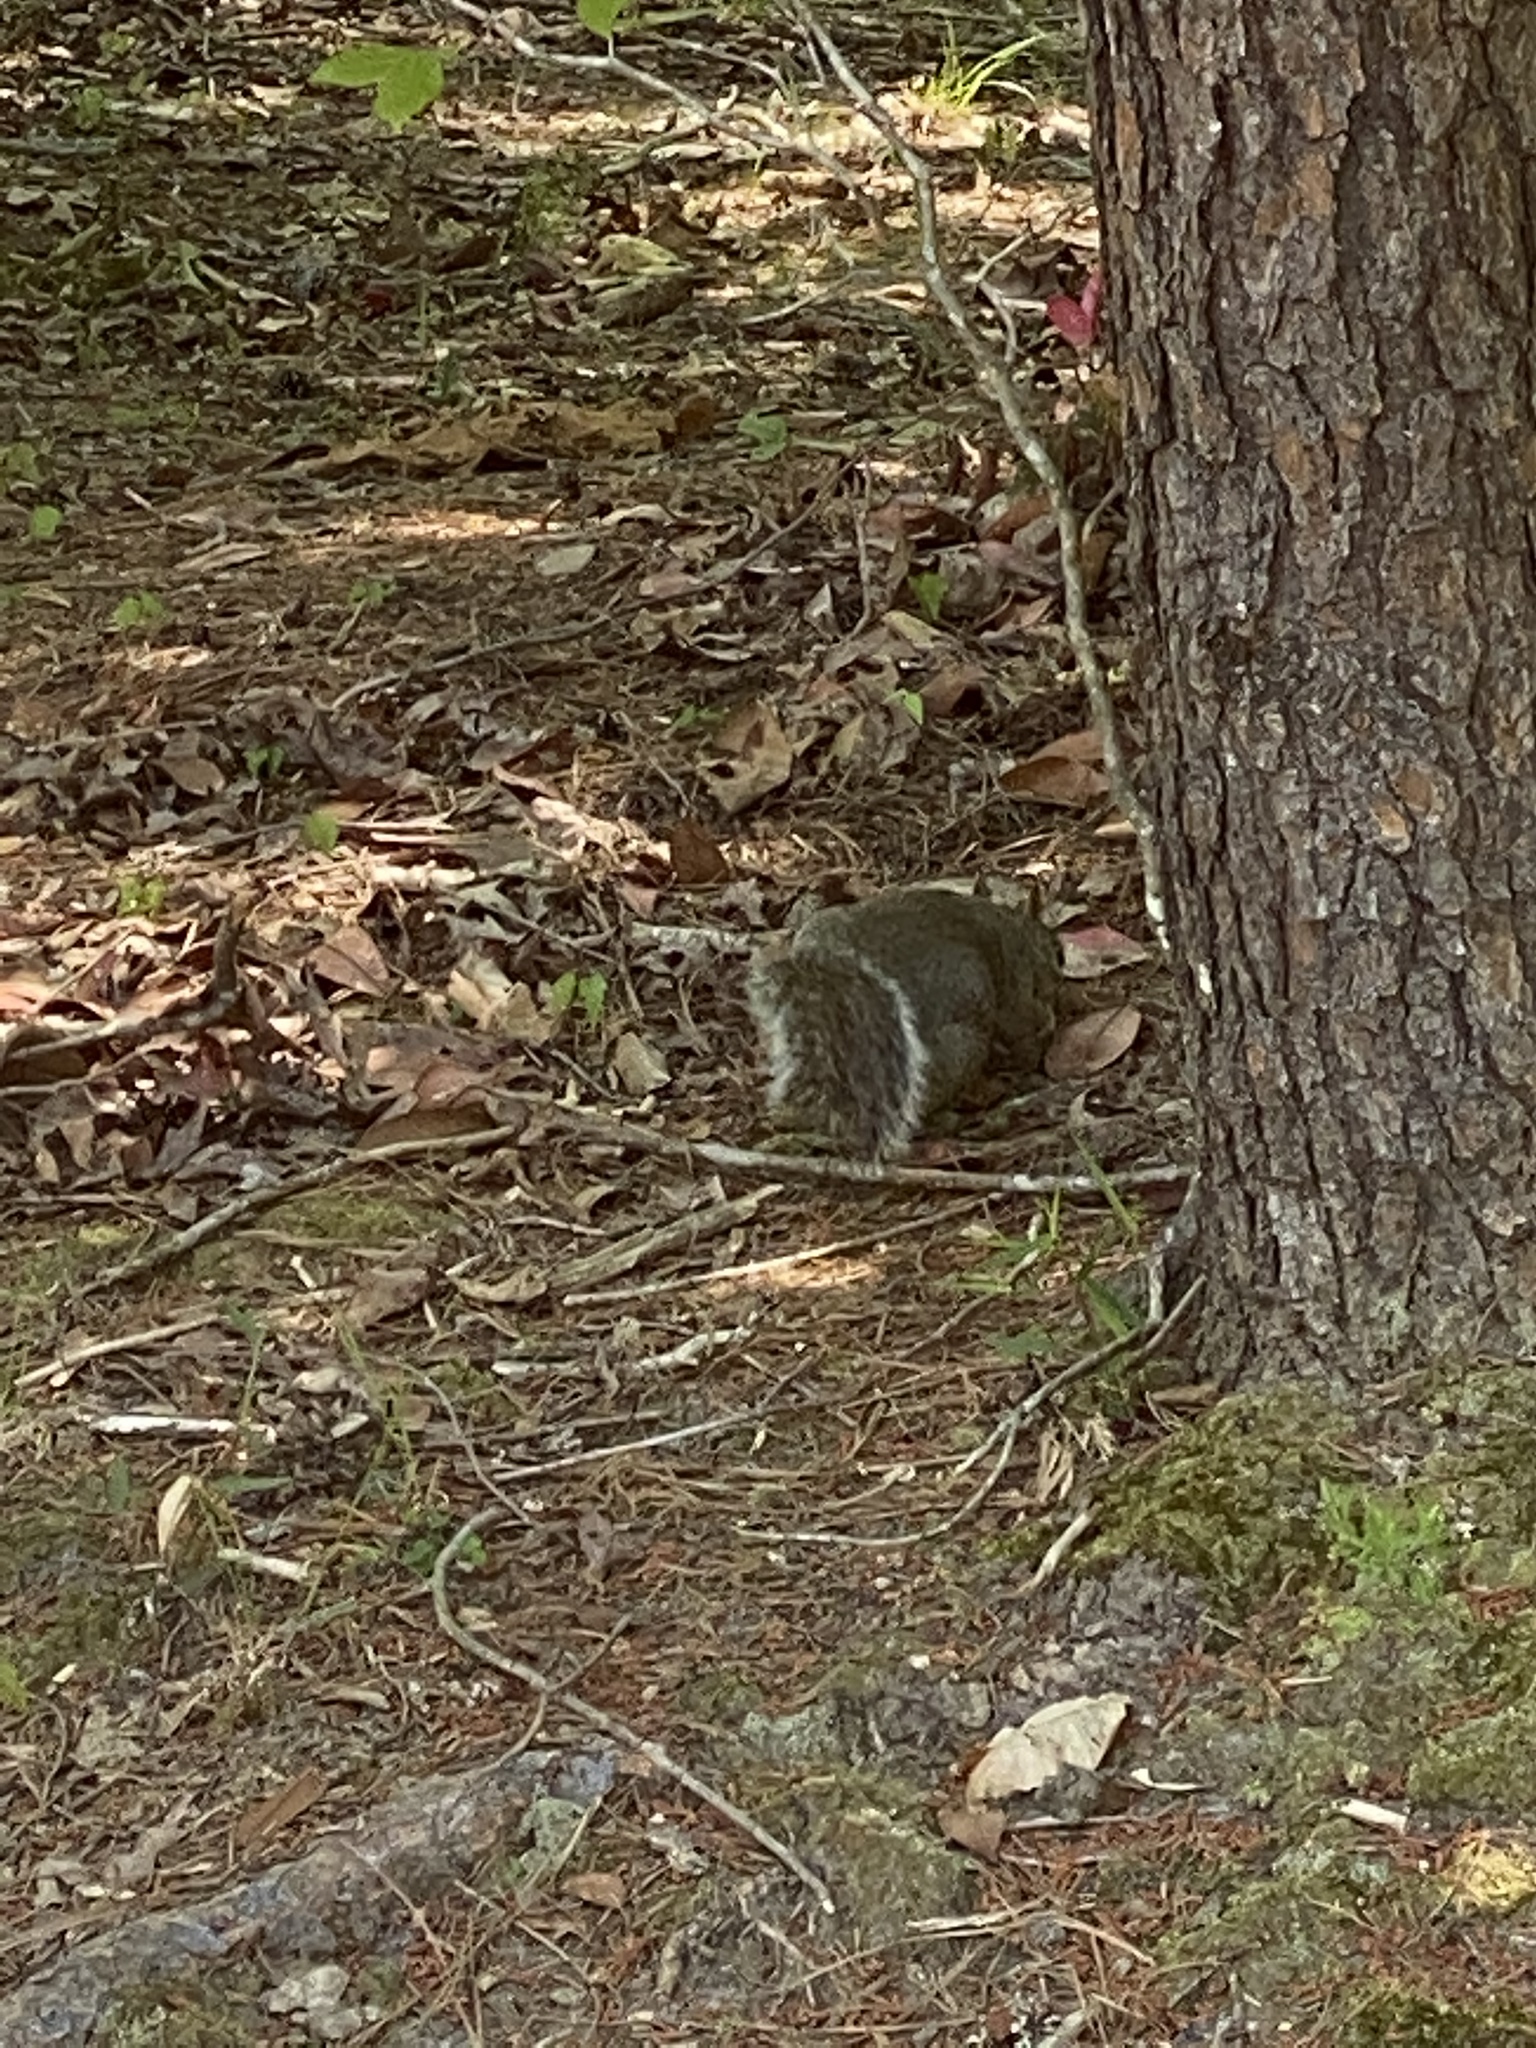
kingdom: Animalia
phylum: Chordata
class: Mammalia
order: Rodentia
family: Sciuridae
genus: Sciurus
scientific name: Sciurus carolinensis
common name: Eastern gray squirrel
